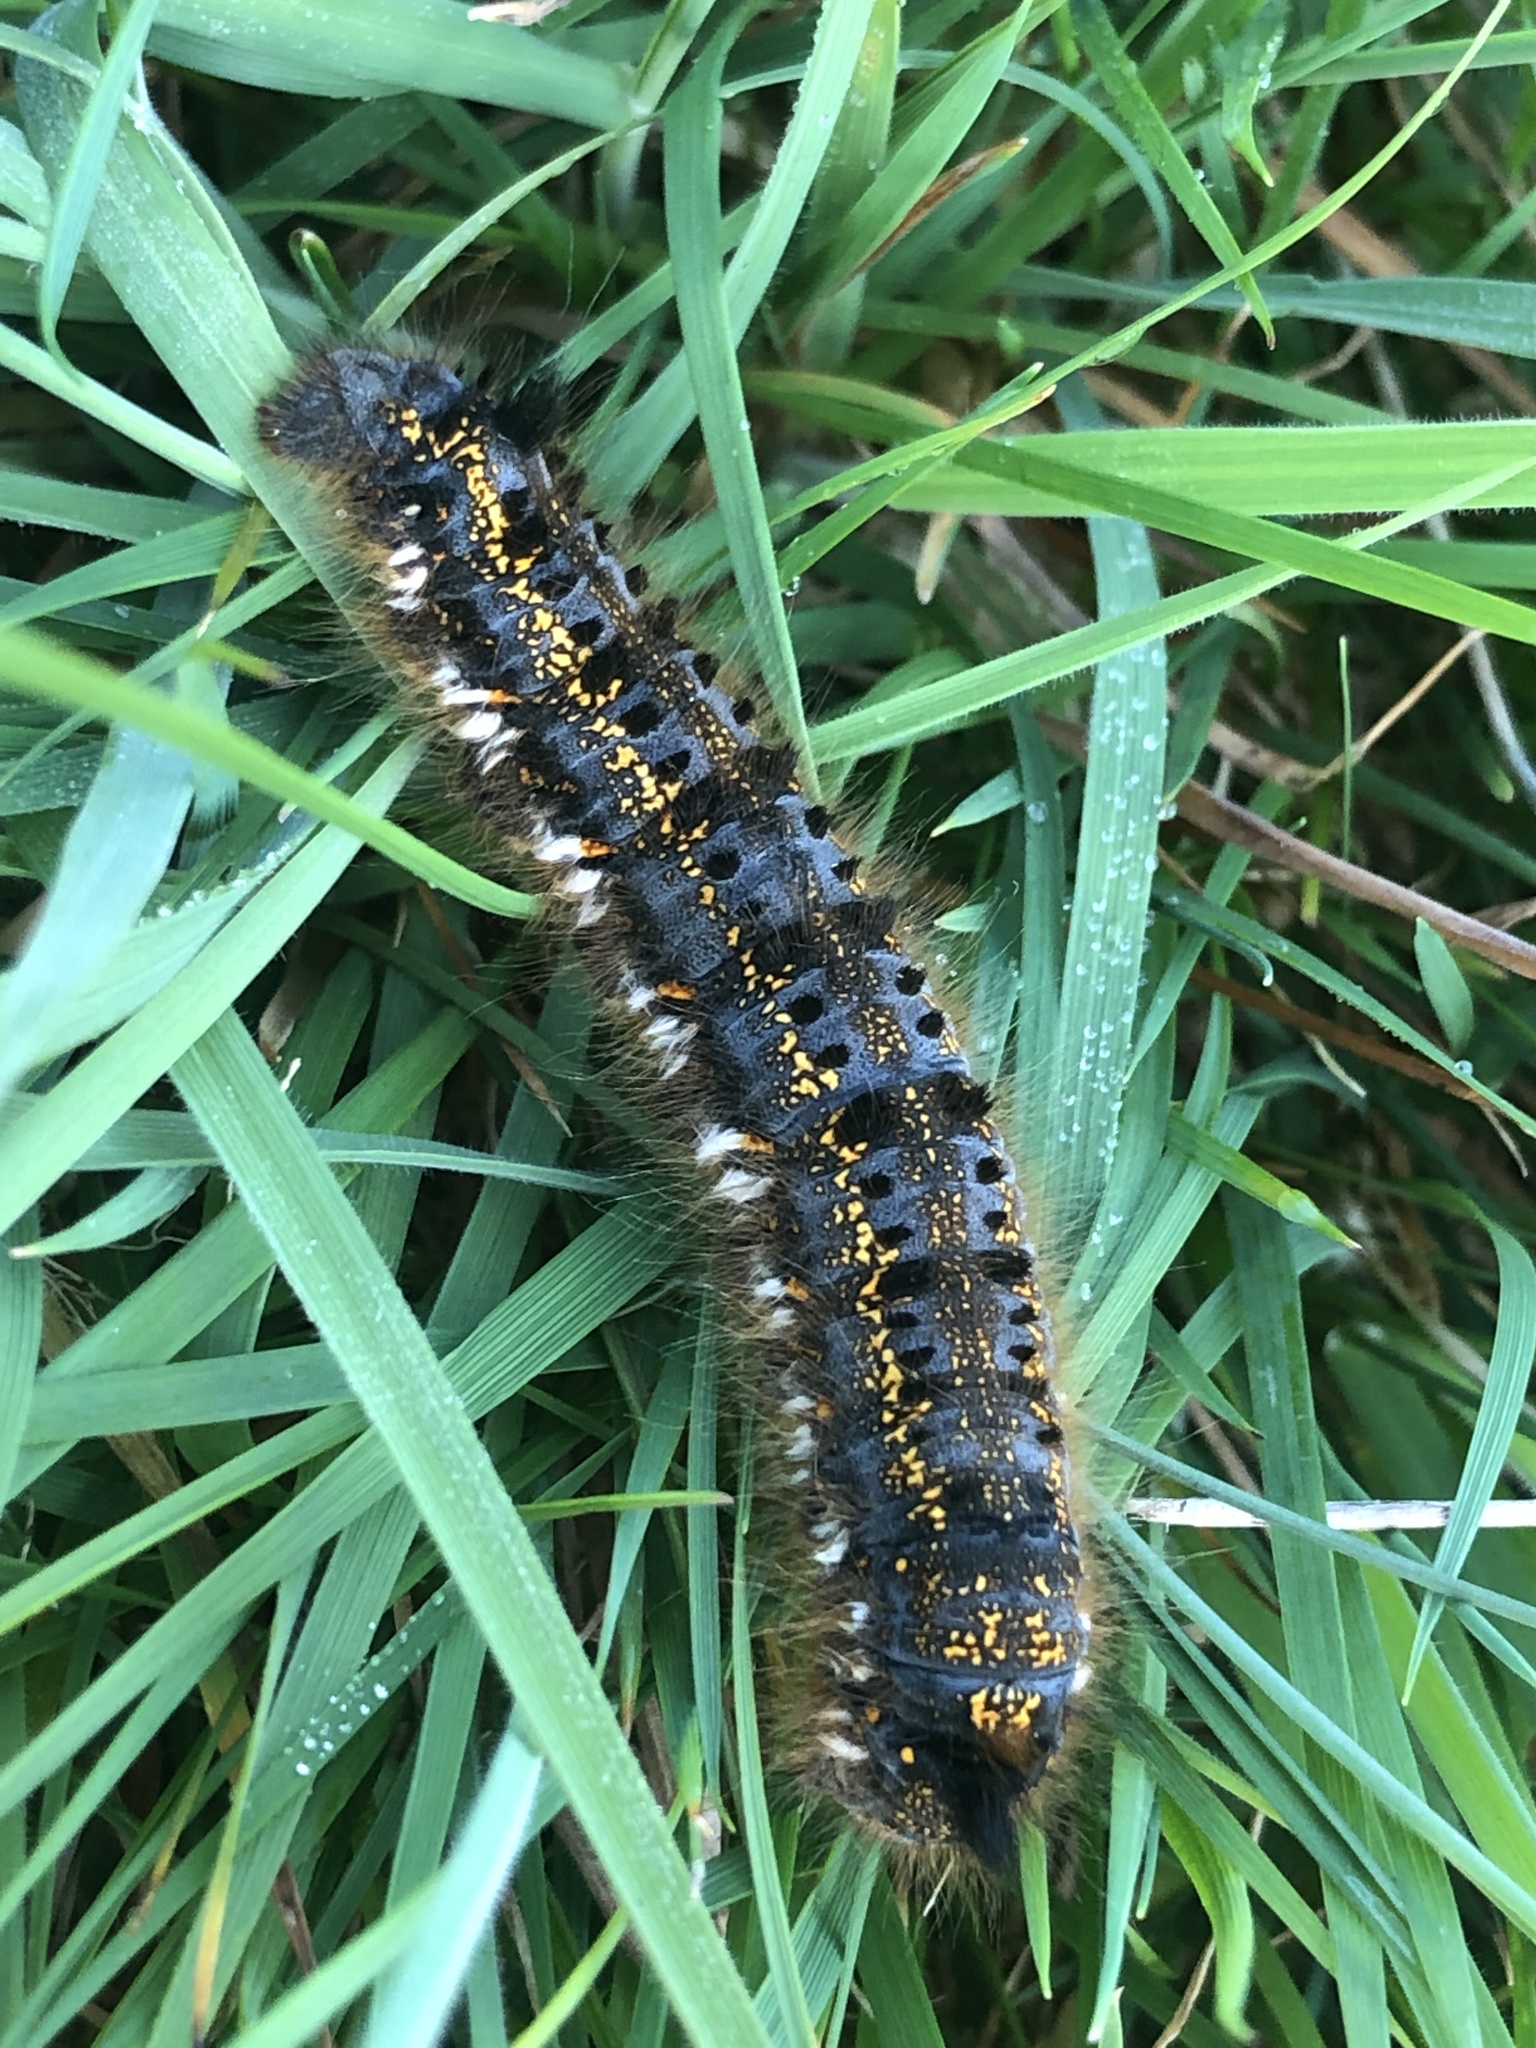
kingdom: Animalia
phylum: Arthropoda
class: Insecta
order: Lepidoptera
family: Lasiocampidae
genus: Euthrix
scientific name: Euthrix potatoria
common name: Drinker
